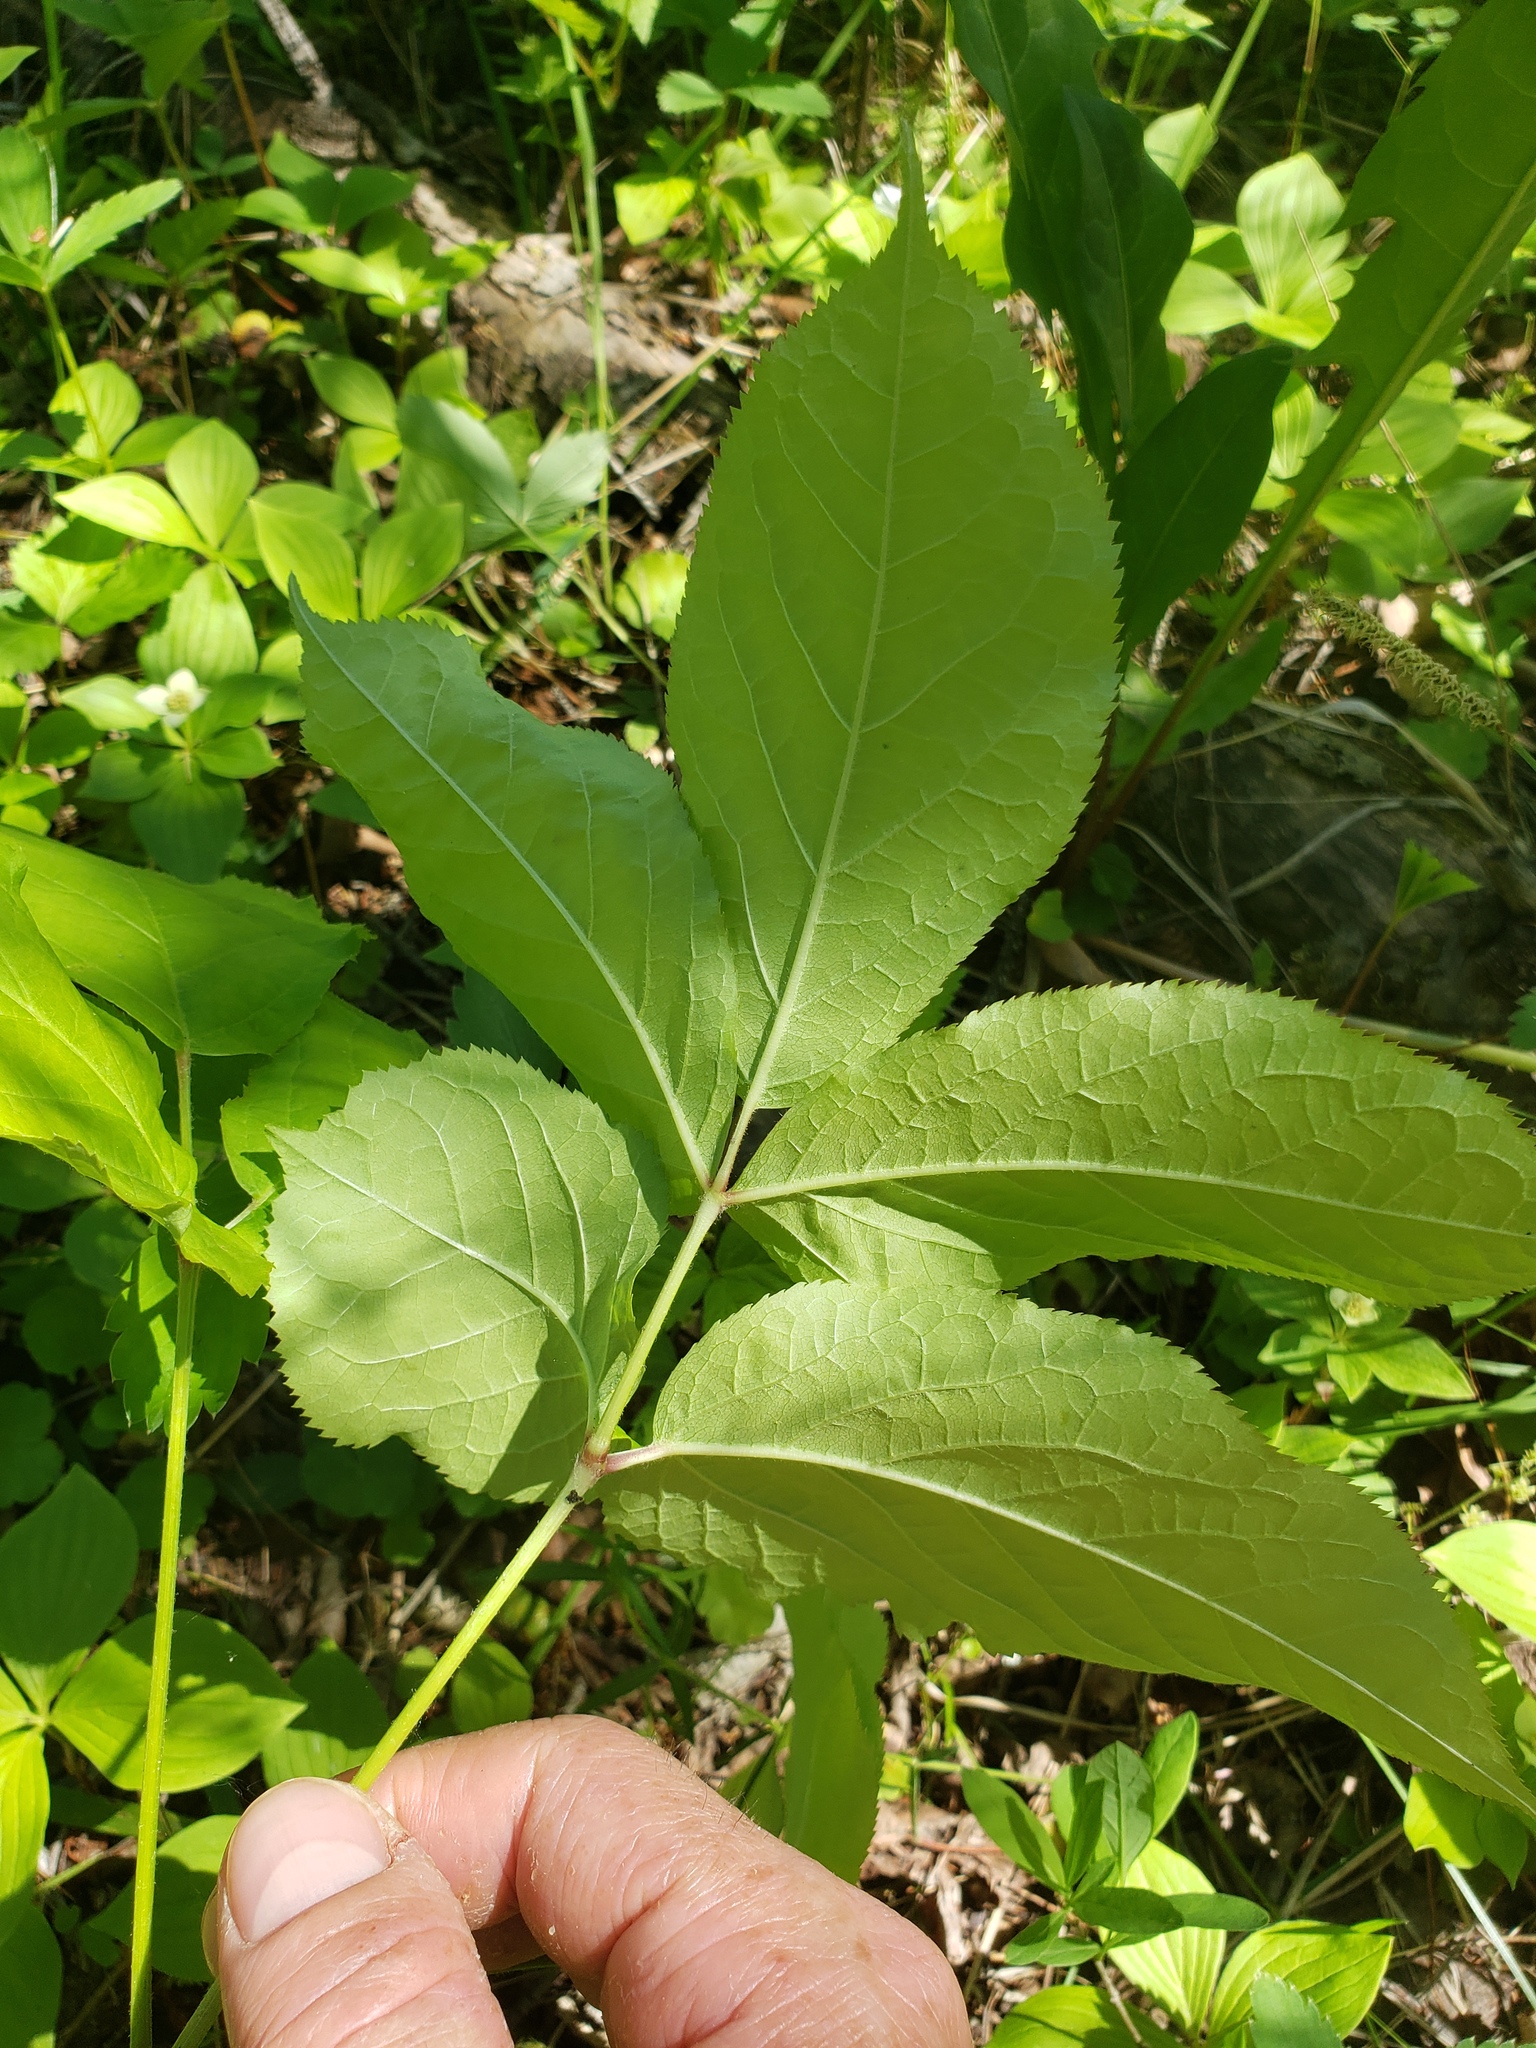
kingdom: Plantae
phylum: Tracheophyta
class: Magnoliopsida
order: Apiales
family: Araliaceae
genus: Aralia
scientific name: Aralia nudicaulis
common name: Wild sarsaparilla
